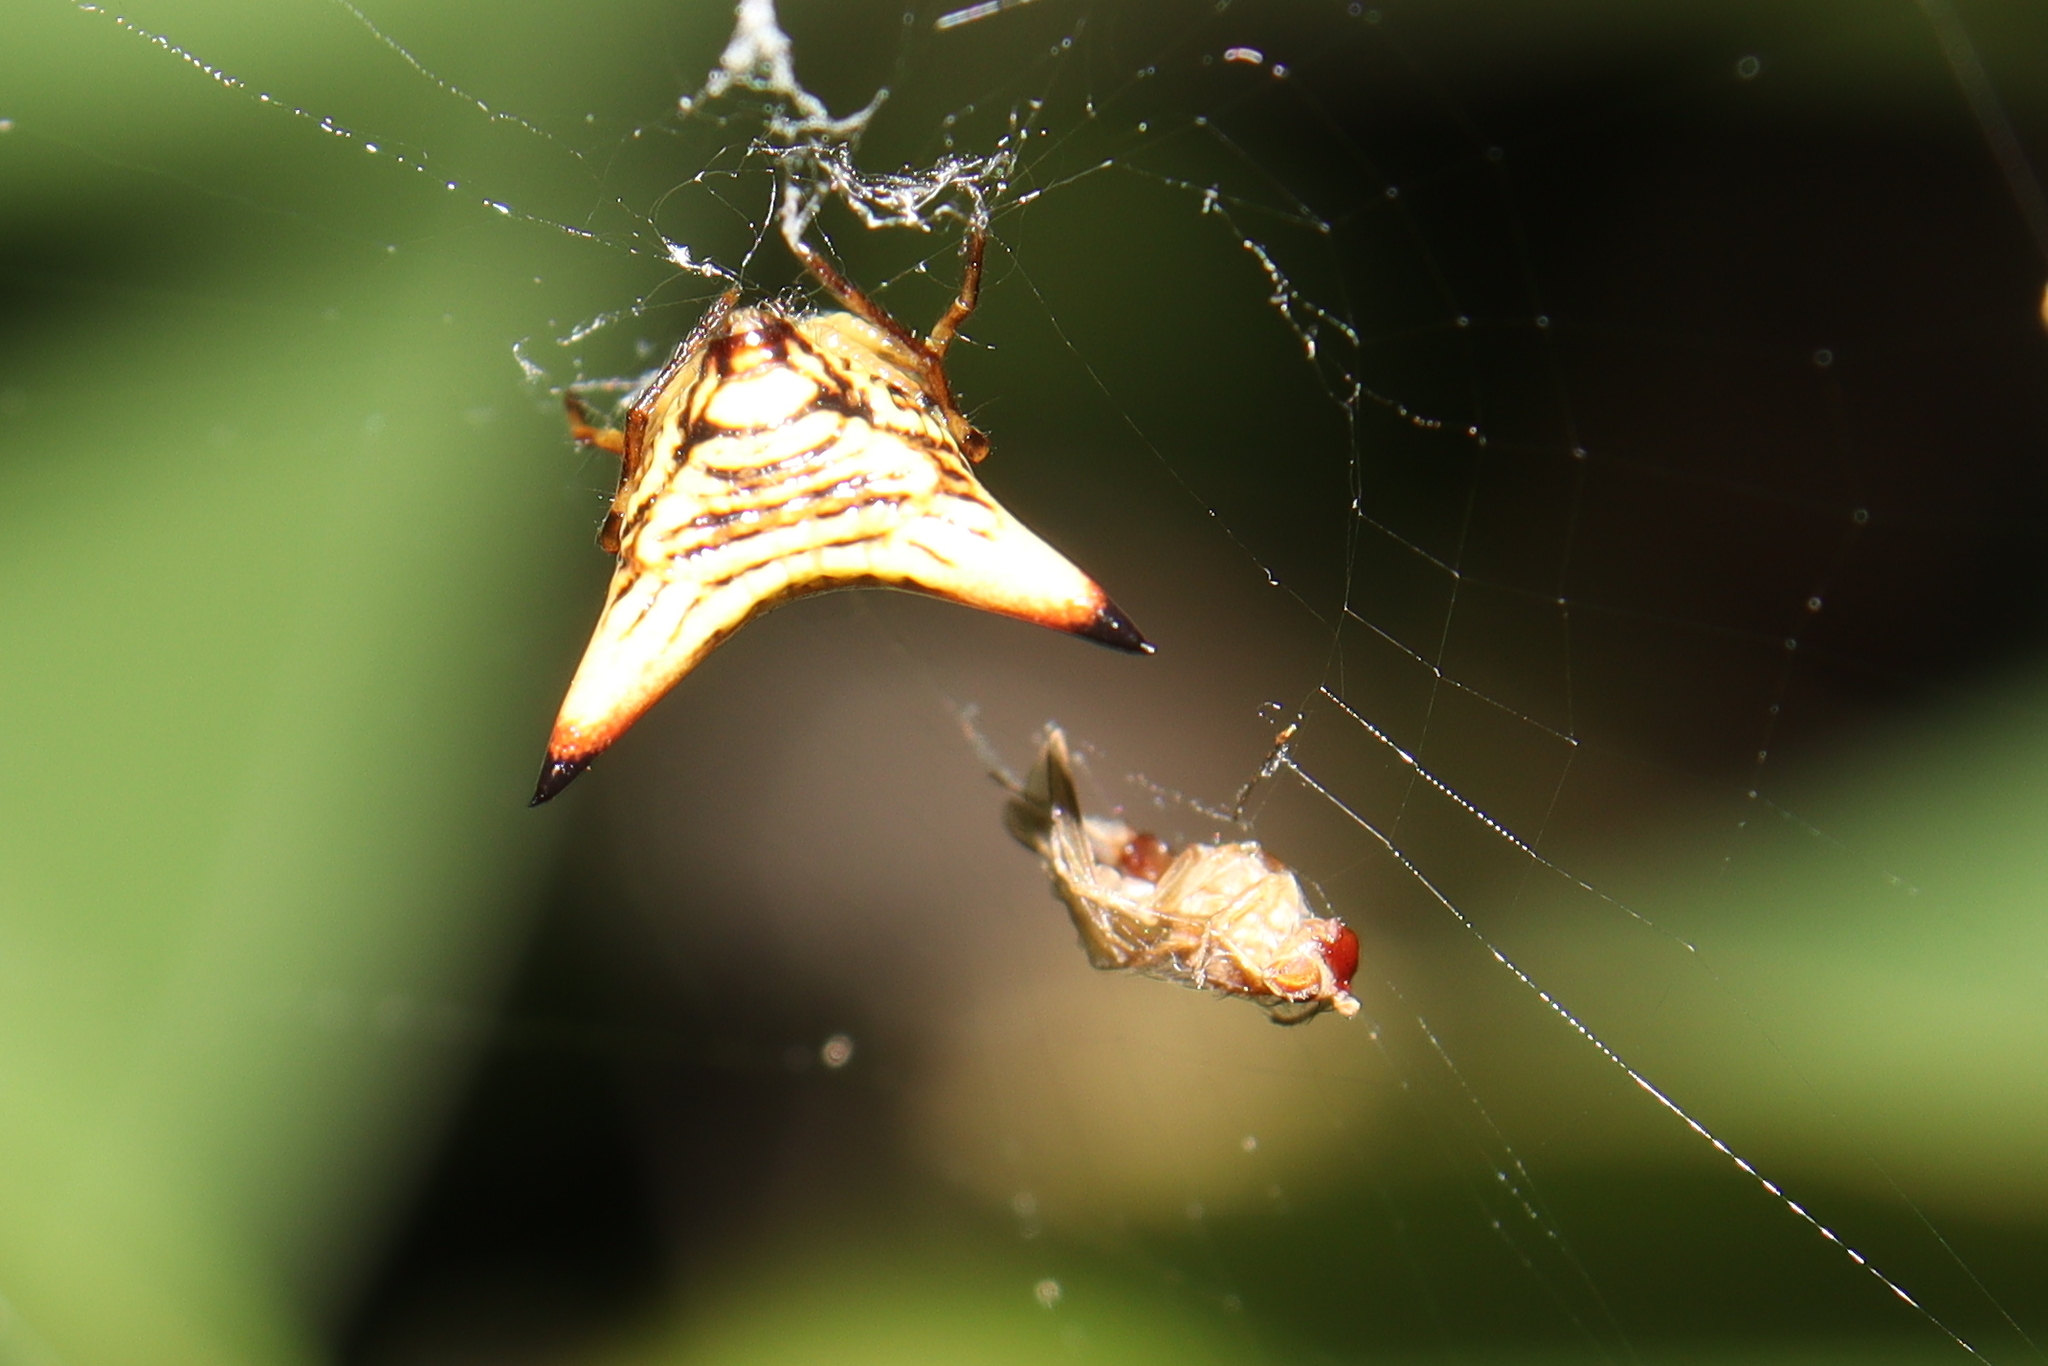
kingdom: Animalia
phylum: Arthropoda
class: Arachnida
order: Araneae
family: Araneidae
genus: Micrathena
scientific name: Micrathena annulata
